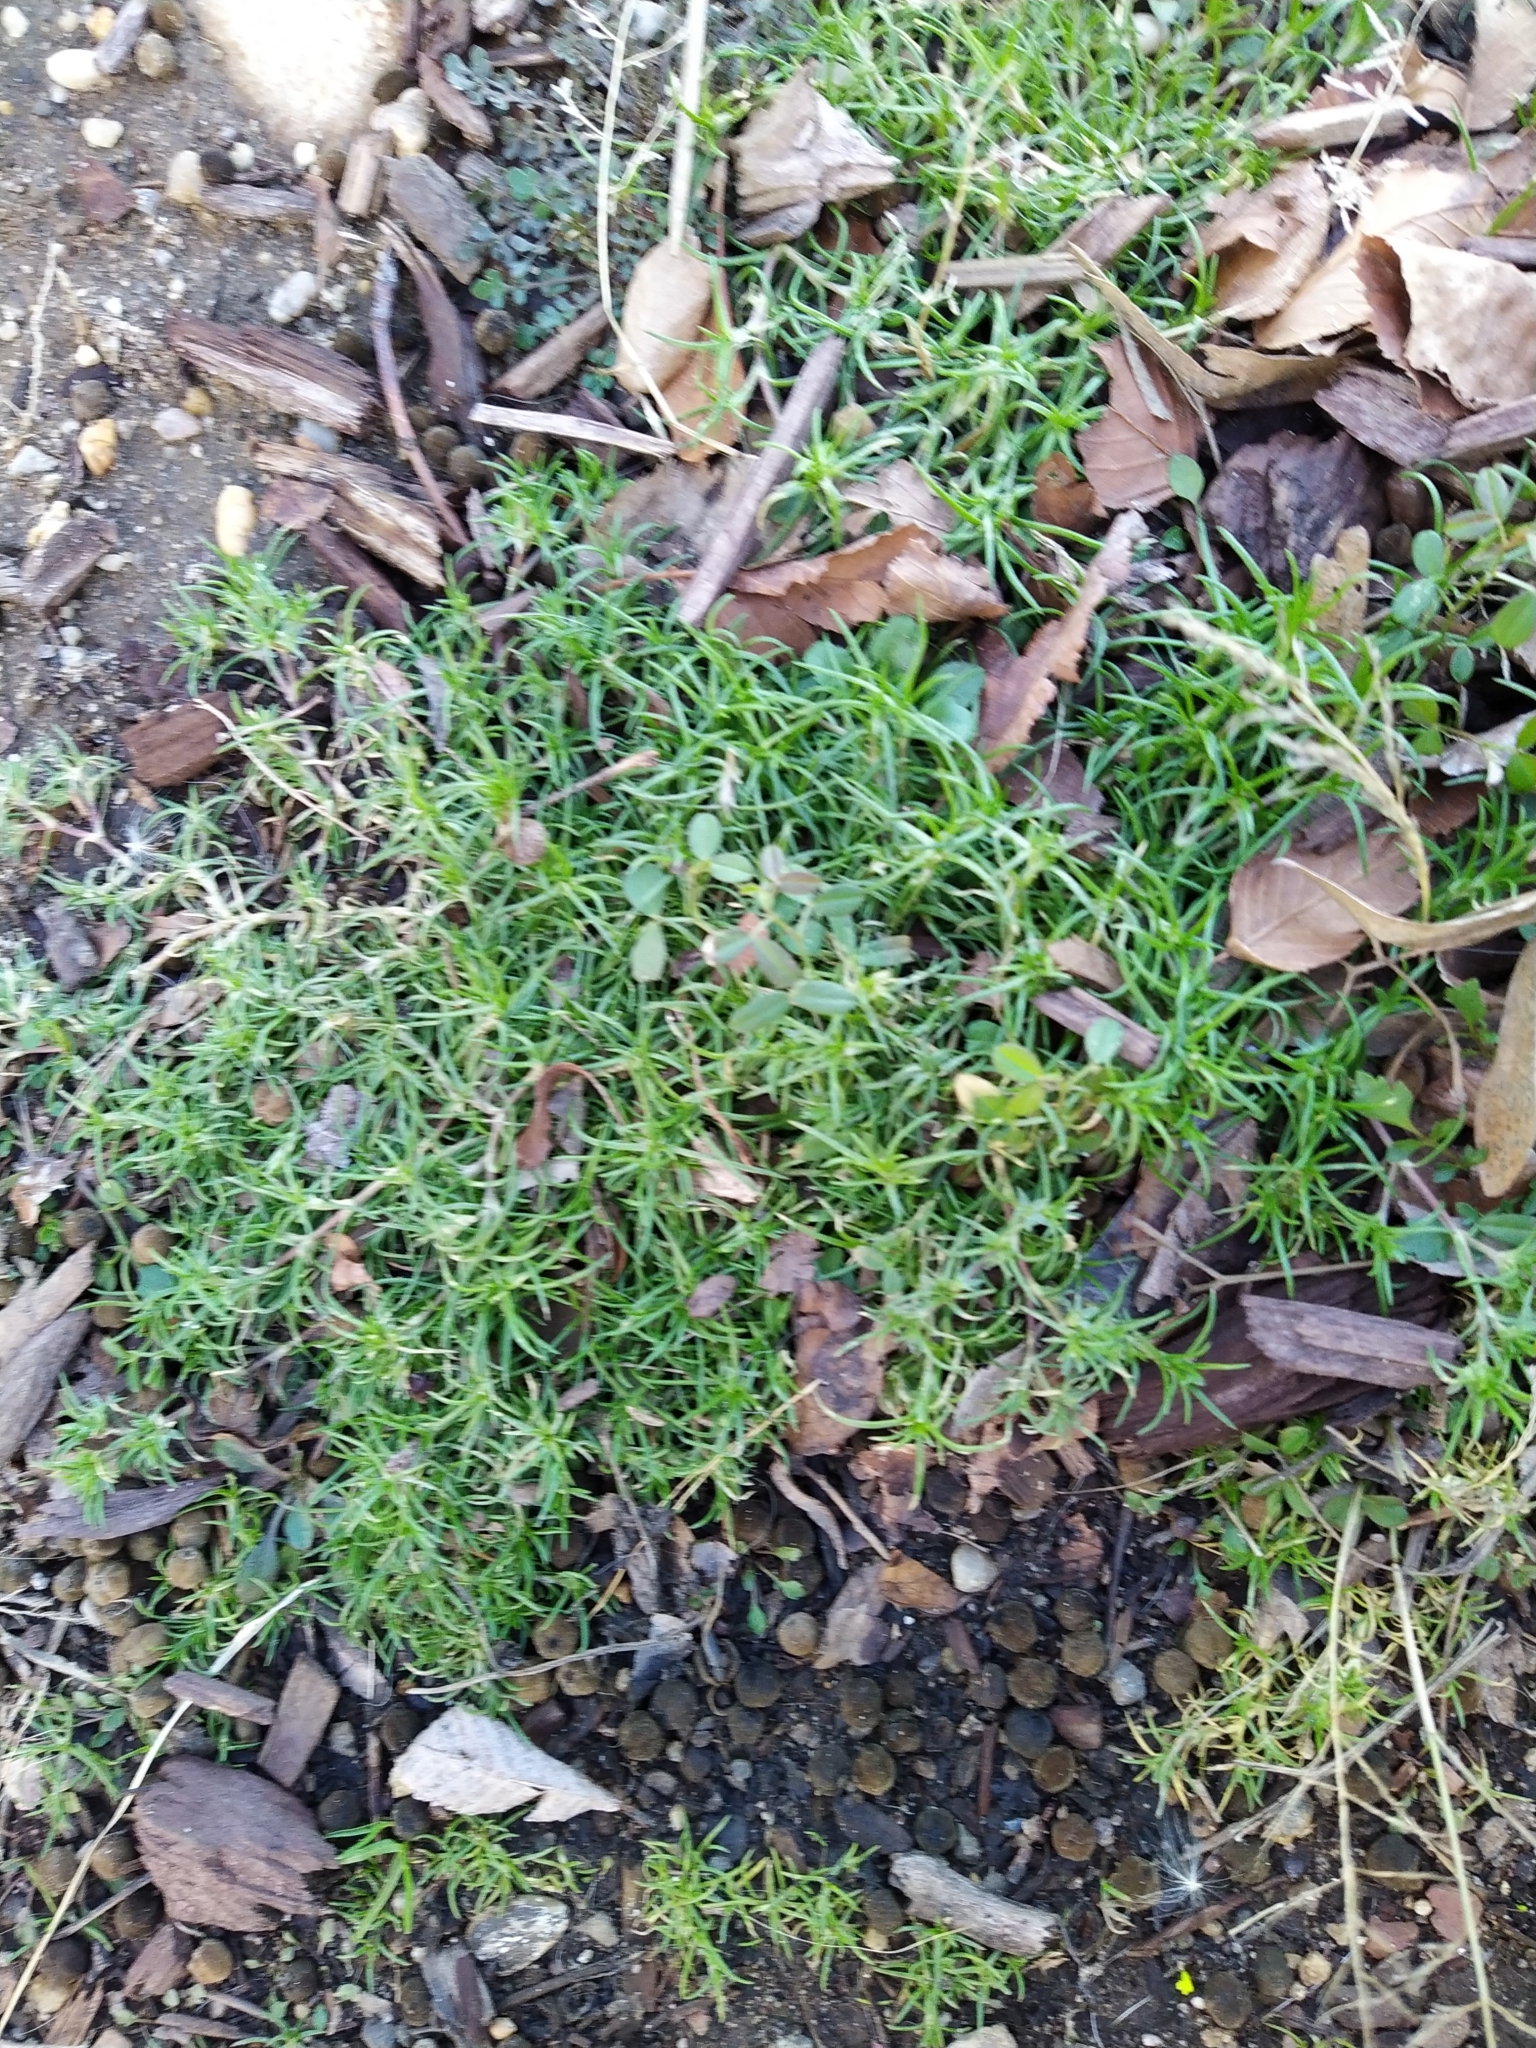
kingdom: Plantae
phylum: Tracheophyta
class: Magnoliopsida
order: Caryophyllales
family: Caryophyllaceae
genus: Scleranthus
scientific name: Scleranthus annuus
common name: Annual knawel
